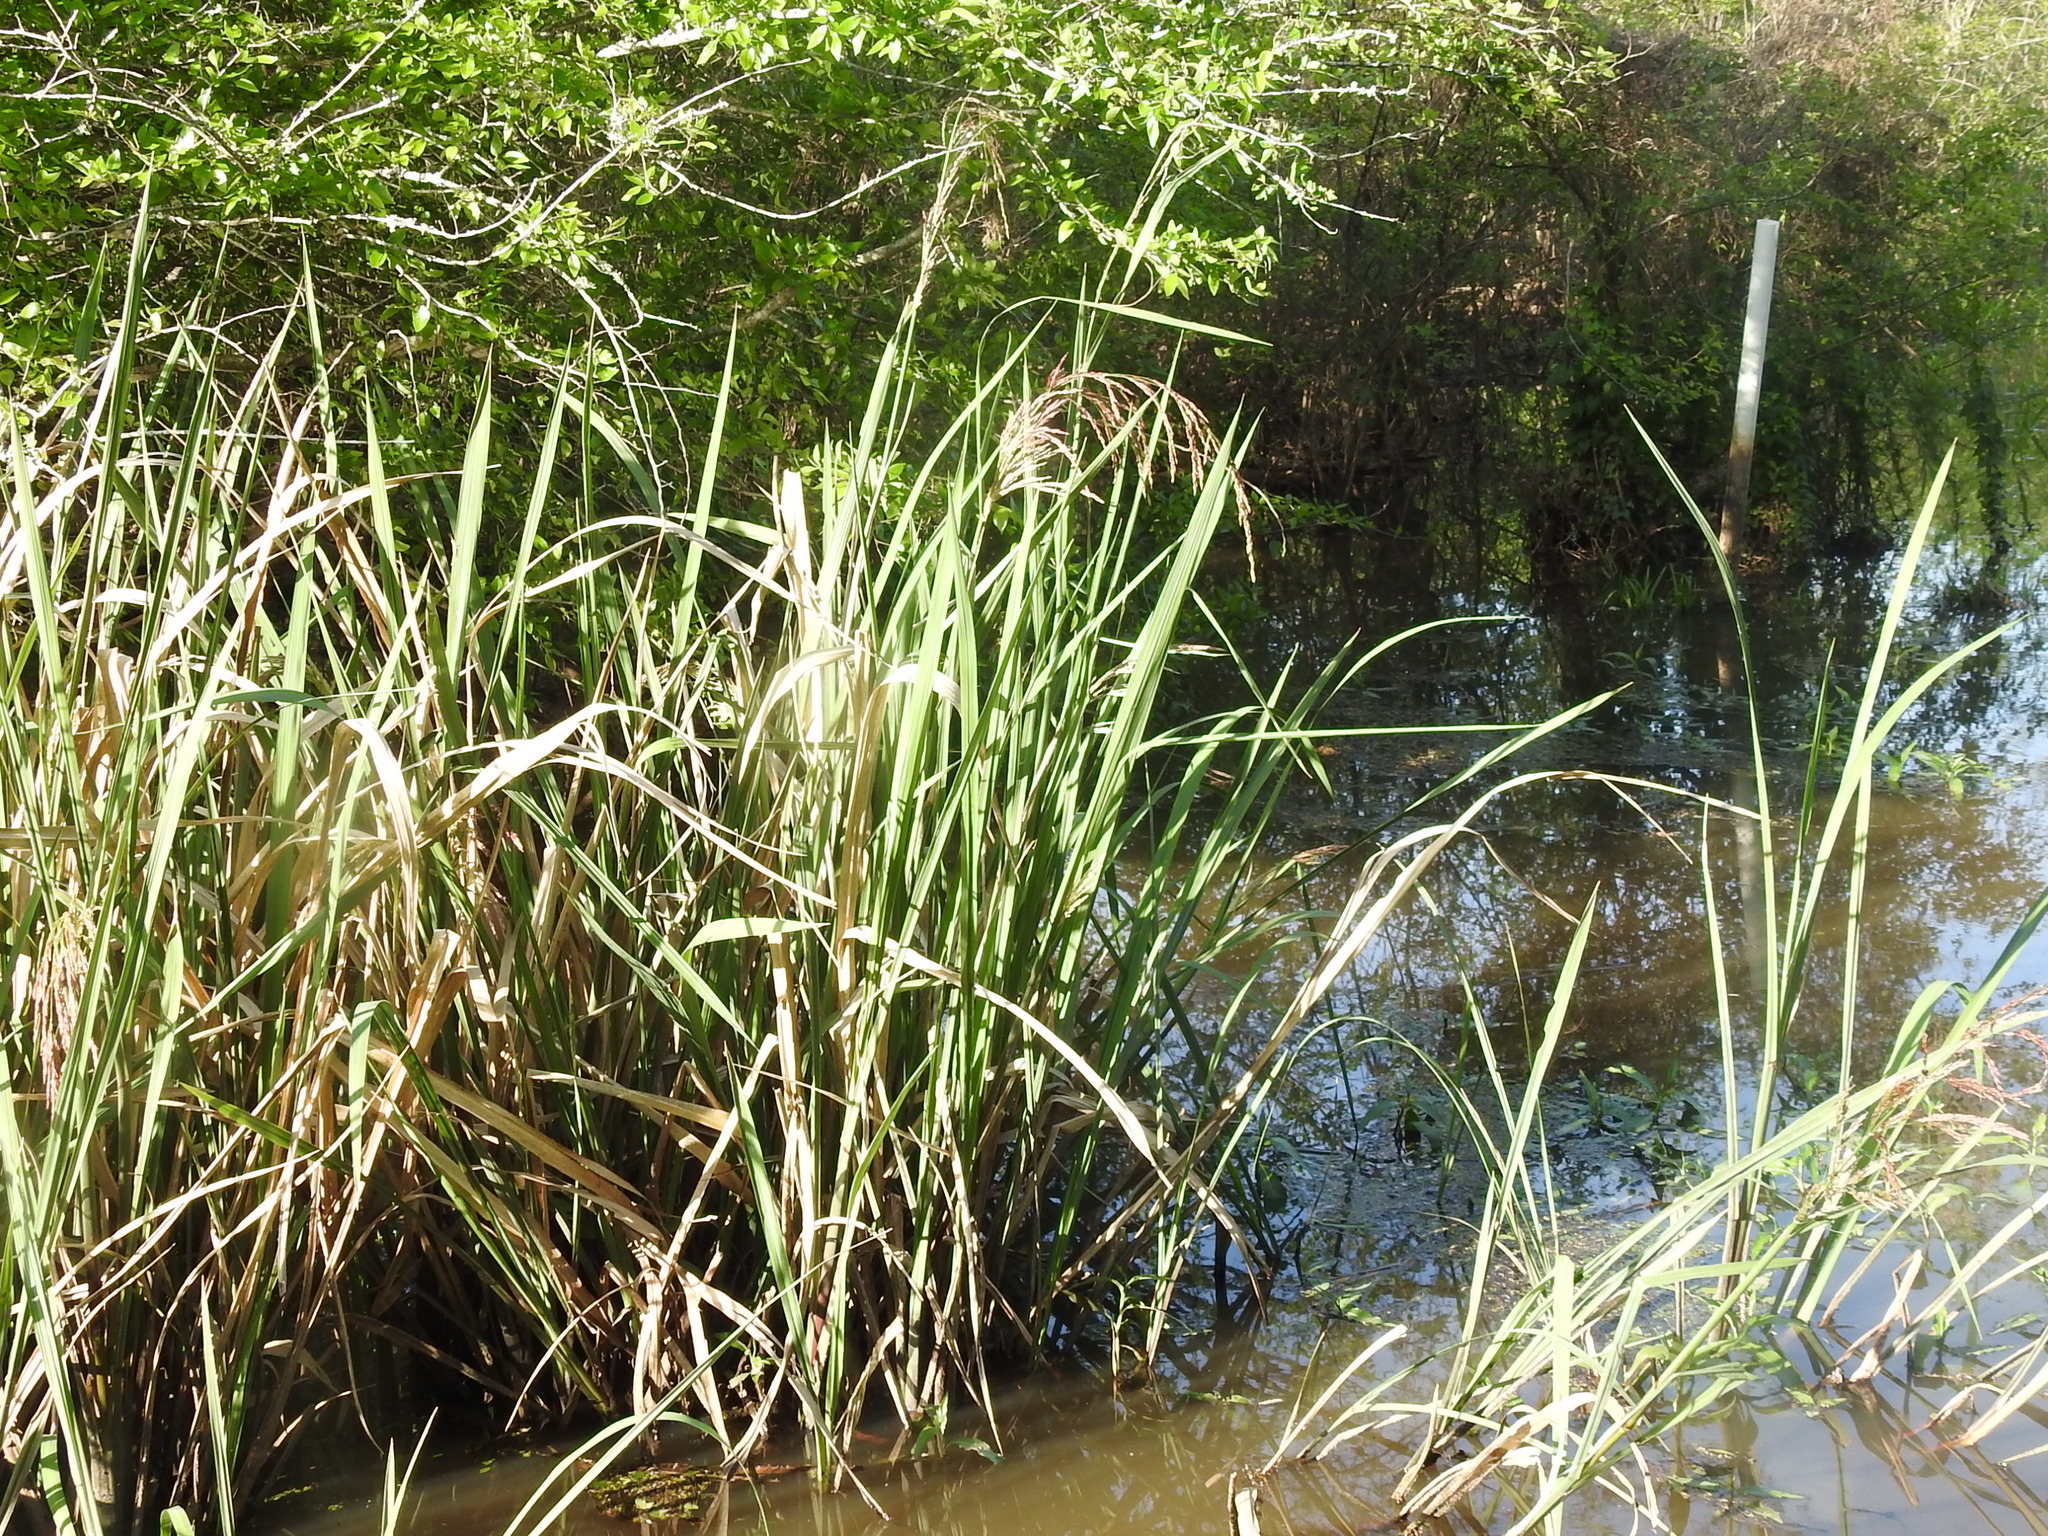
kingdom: Plantae
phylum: Tracheophyta
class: Liliopsida
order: Poales
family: Poaceae
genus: Zizaniopsis
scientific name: Zizaniopsis miliacea
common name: Giant-cutgrass
